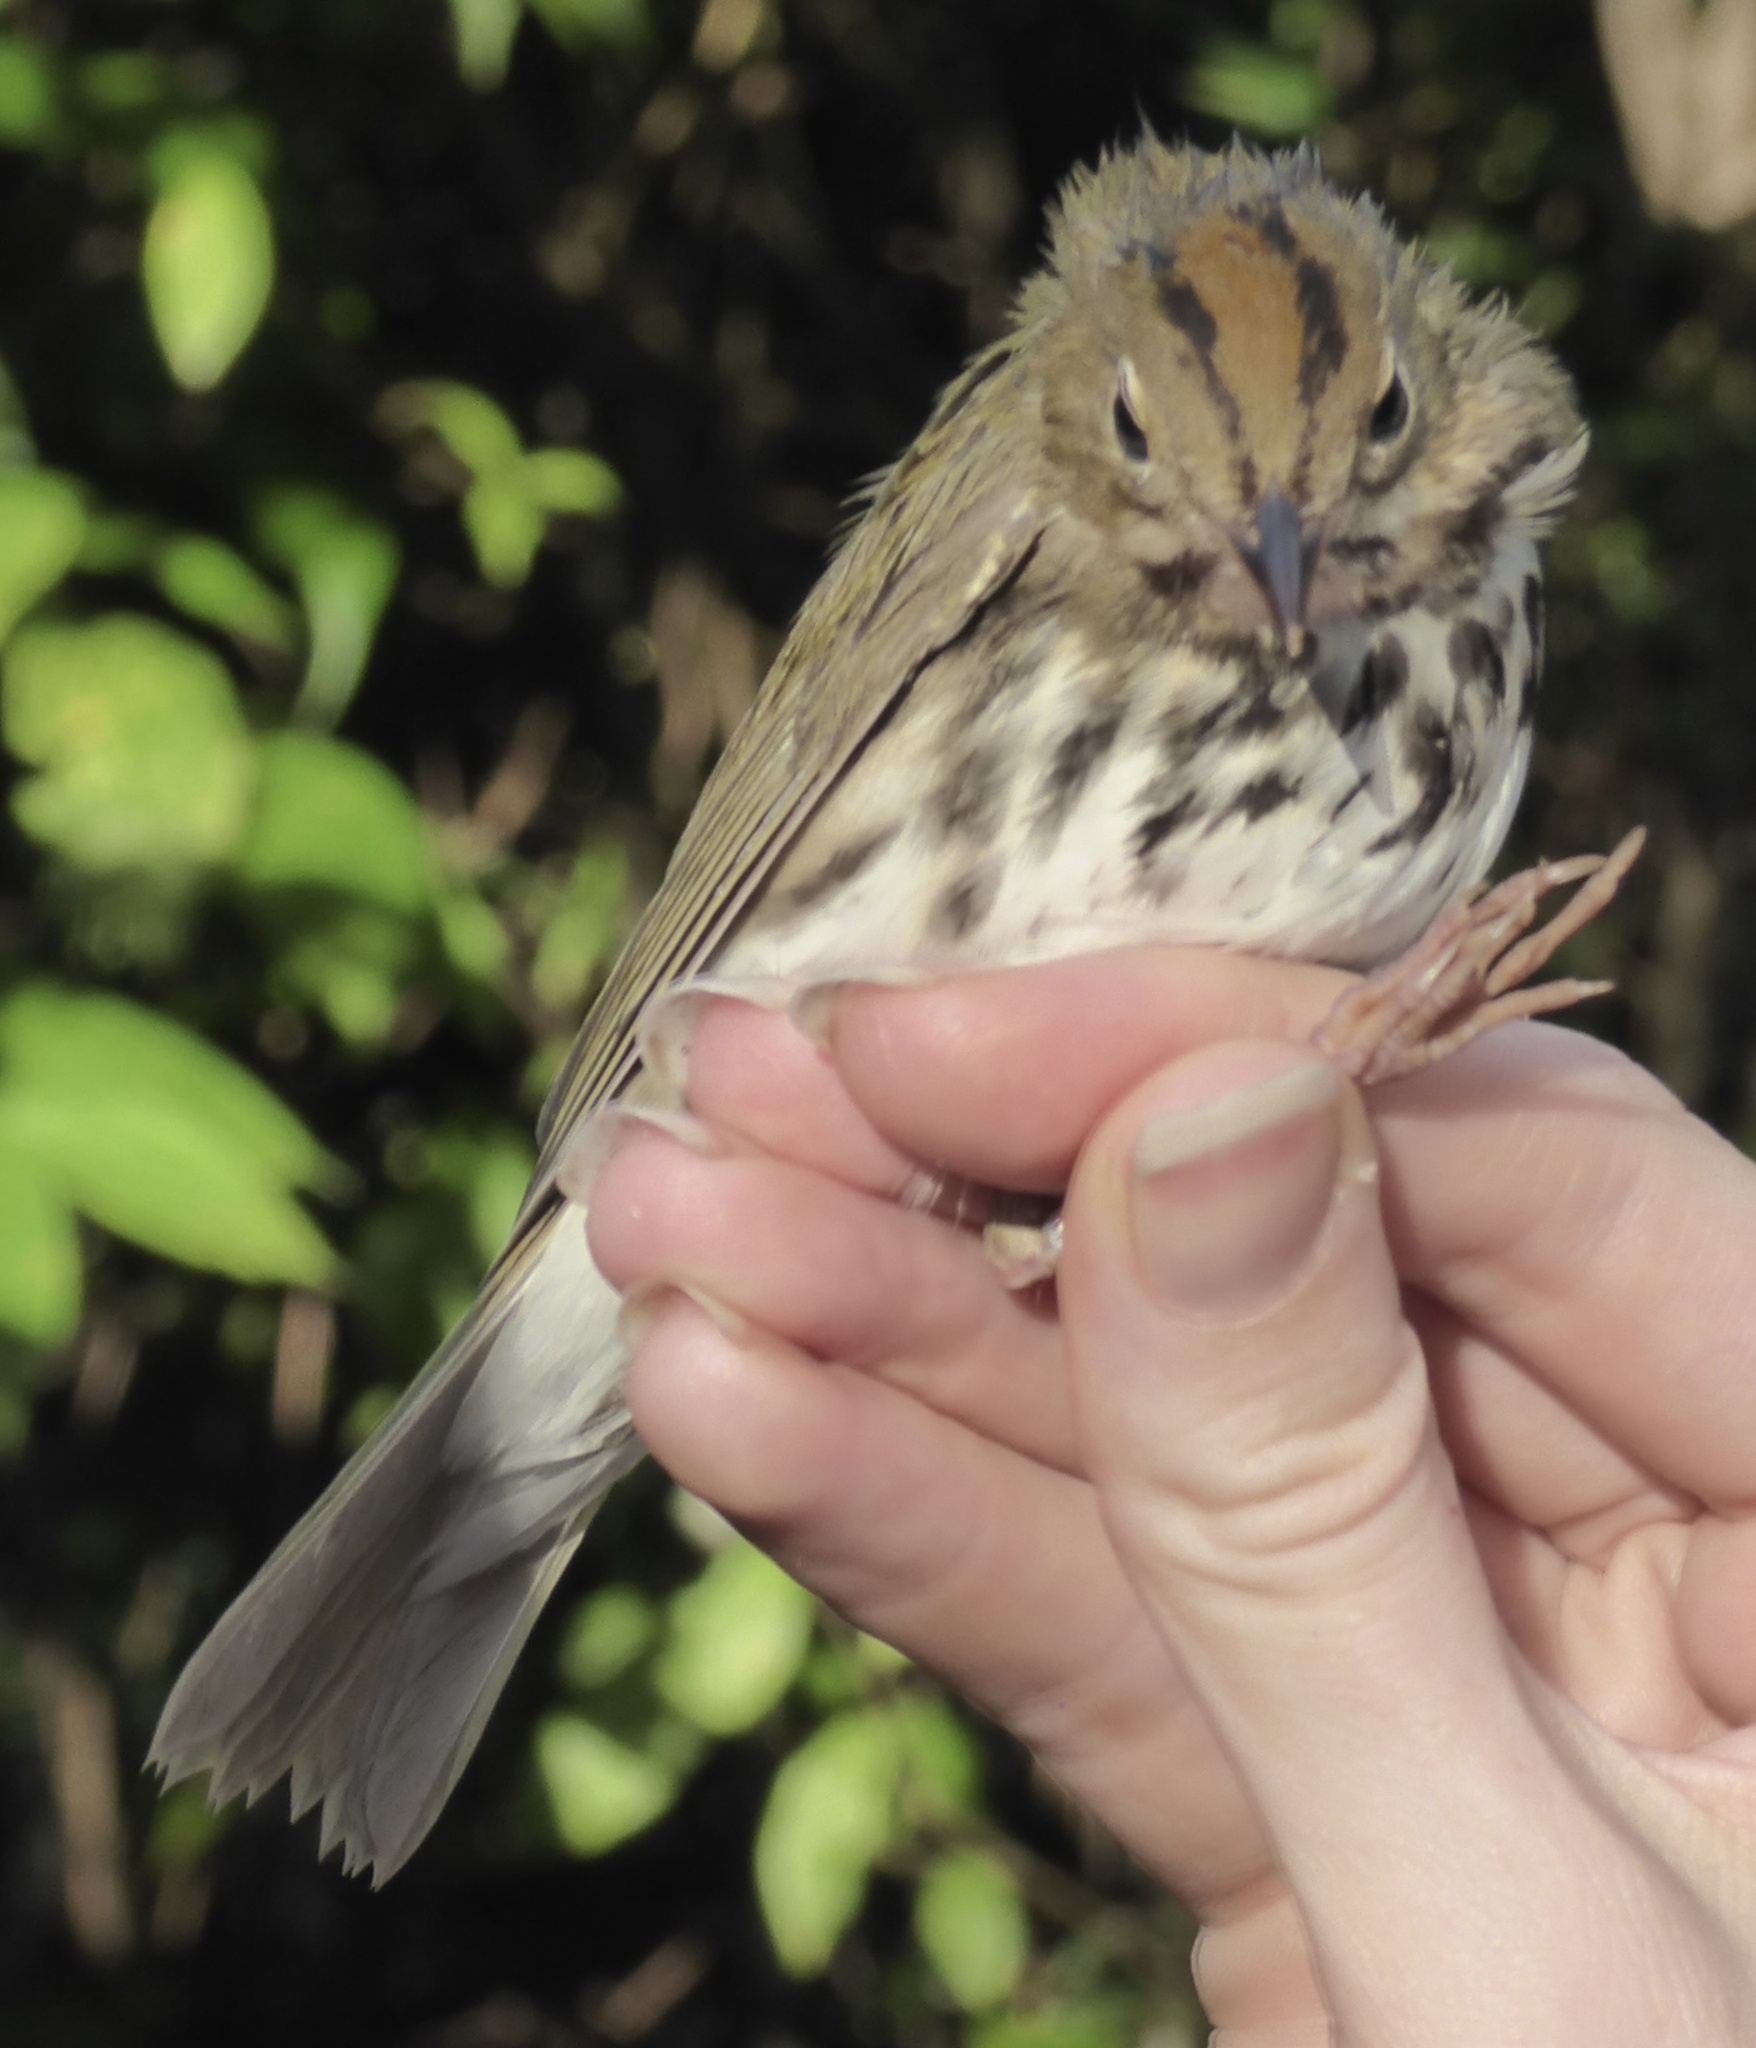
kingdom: Animalia
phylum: Chordata
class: Aves
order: Passeriformes
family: Parulidae
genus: Seiurus
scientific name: Seiurus aurocapilla
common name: Ovenbird
